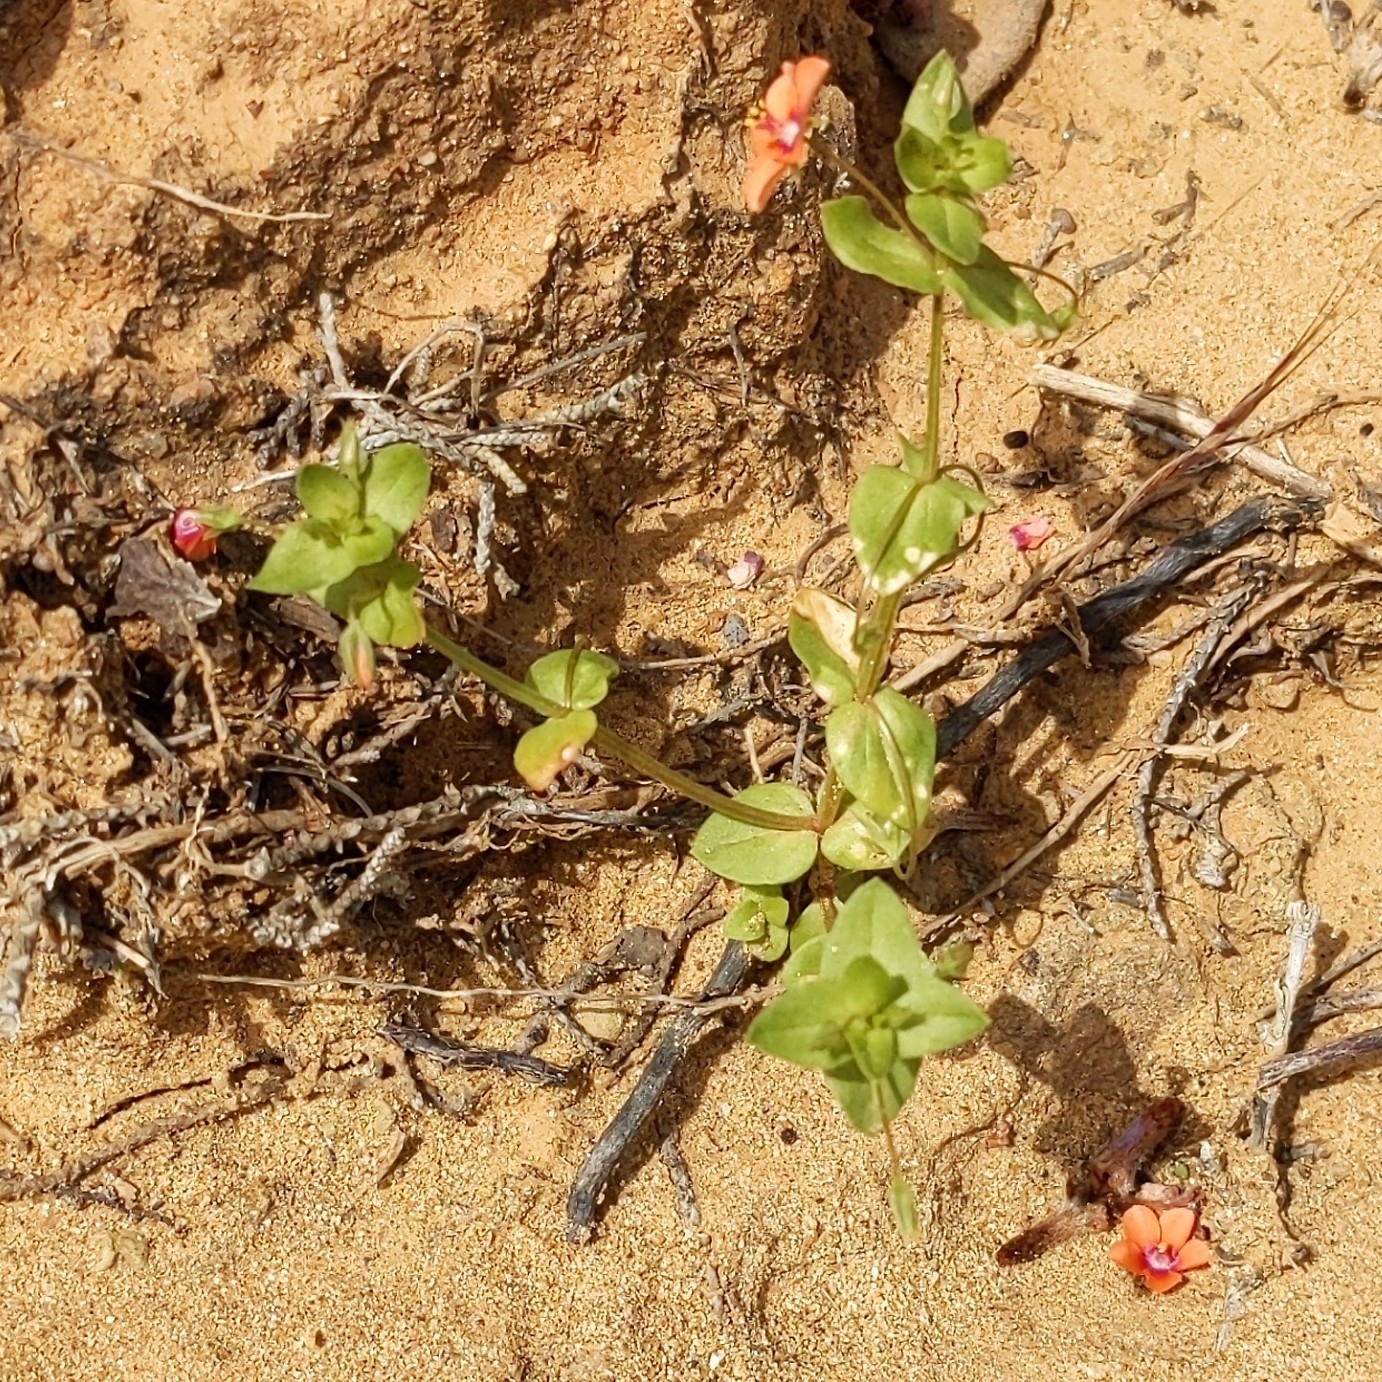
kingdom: Plantae
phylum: Tracheophyta
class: Magnoliopsida
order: Ericales
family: Primulaceae
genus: Lysimachia
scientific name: Lysimachia arvensis
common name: Scarlet pimpernel
